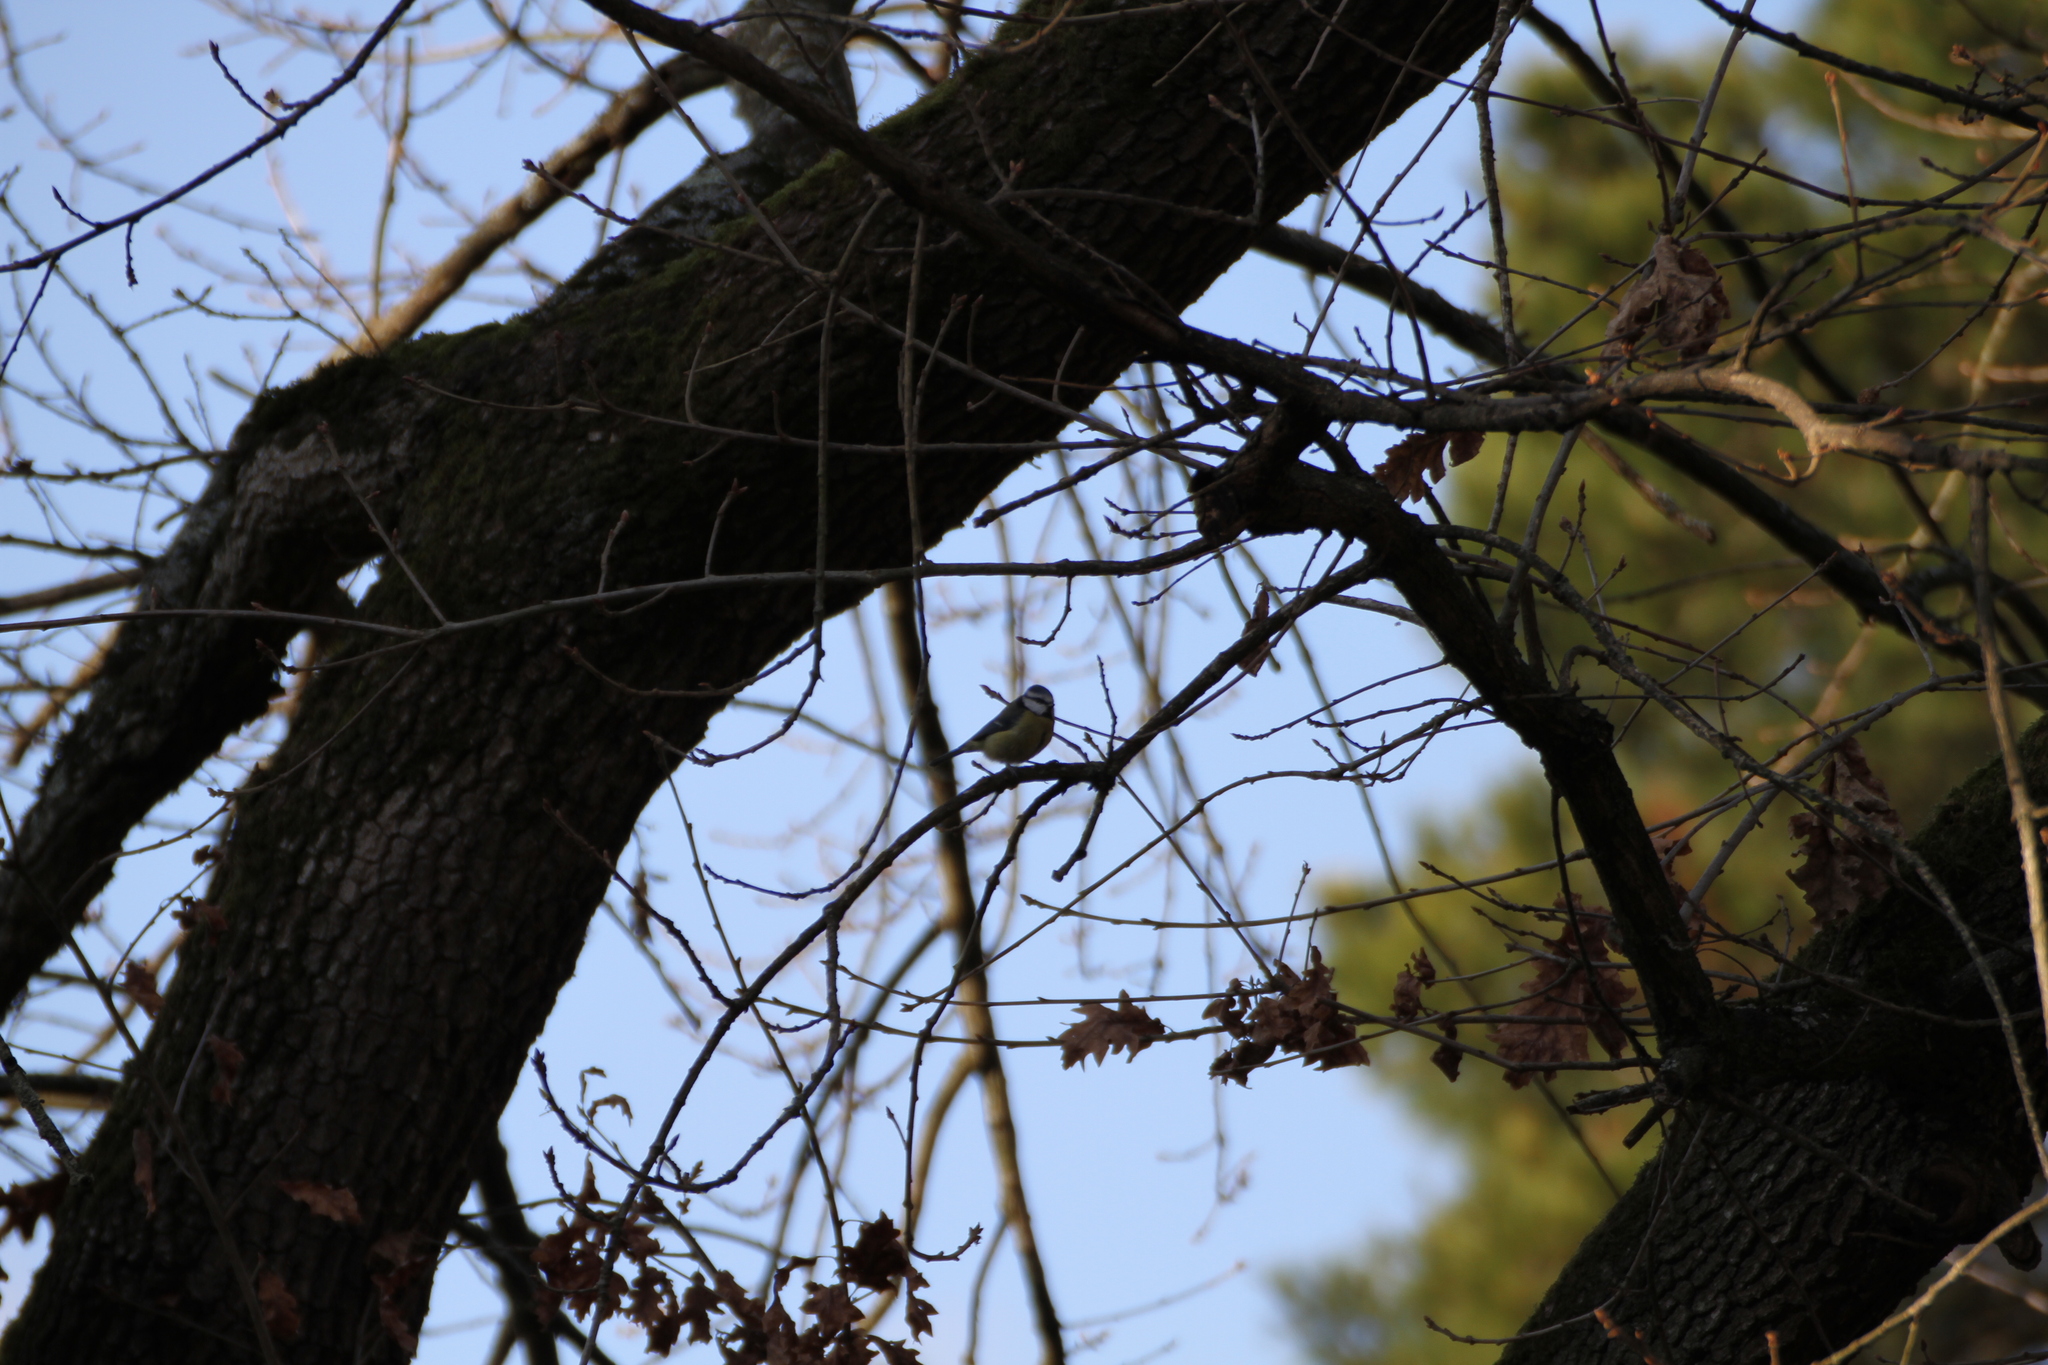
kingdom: Animalia
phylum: Chordata
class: Aves
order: Passeriformes
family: Paridae
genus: Cyanistes
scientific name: Cyanistes caeruleus
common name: Eurasian blue tit
